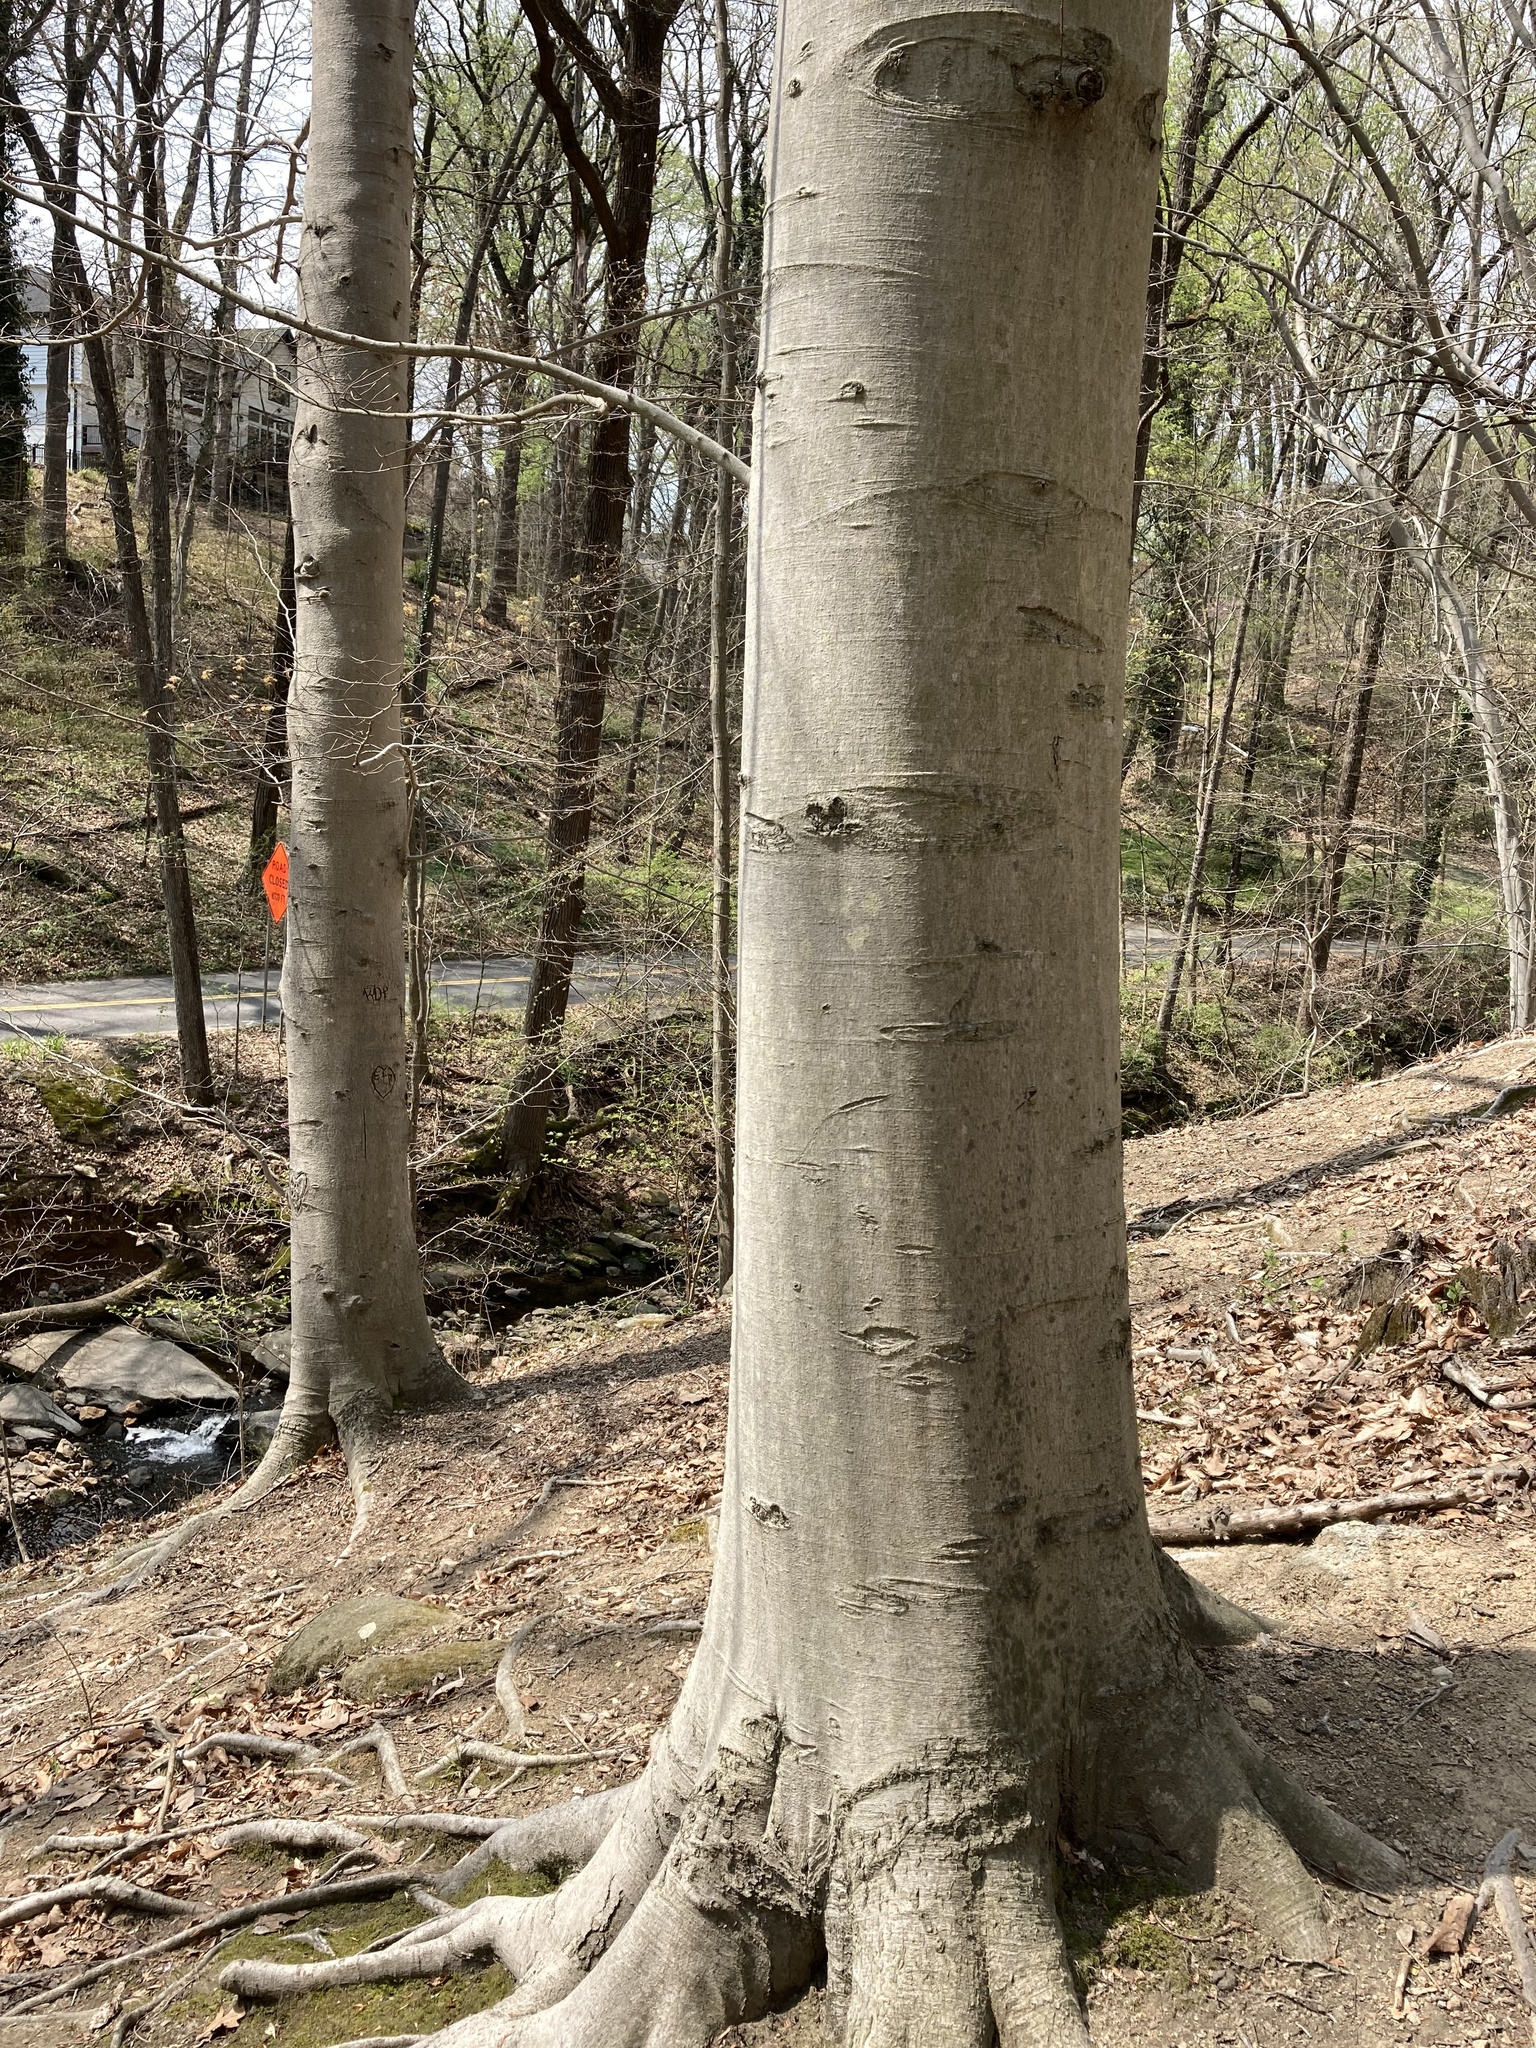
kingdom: Plantae
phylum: Tracheophyta
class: Magnoliopsida
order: Fagales
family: Fagaceae
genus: Fagus
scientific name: Fagus grandifolia
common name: American beech
